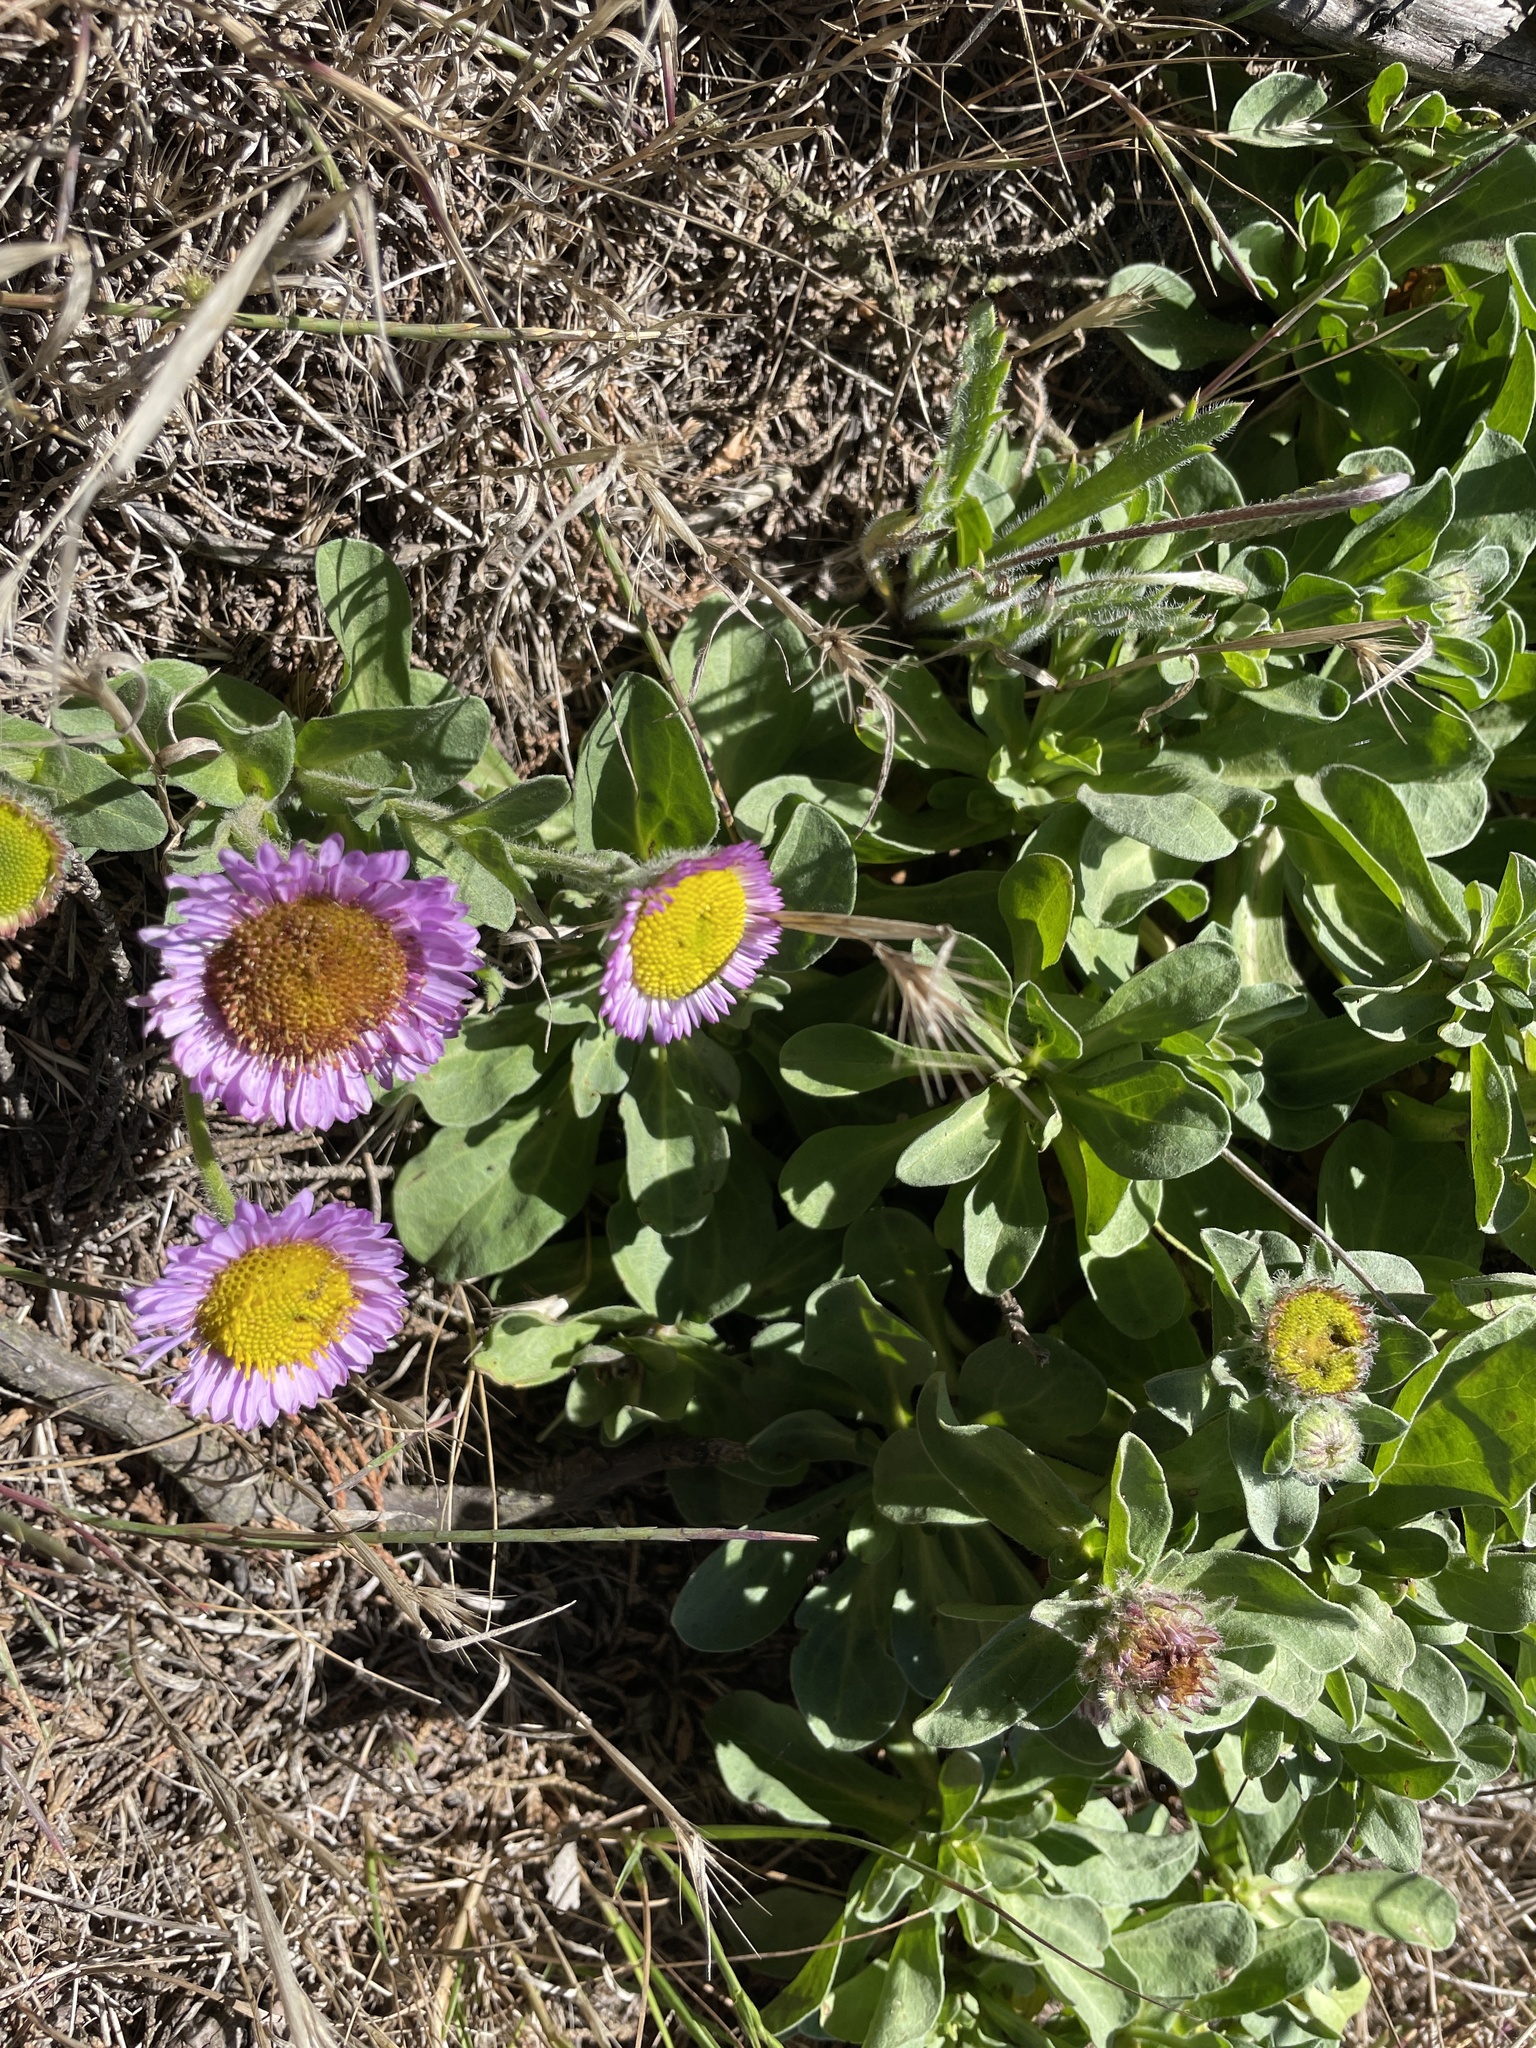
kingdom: Plantae
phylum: Tracheophyta
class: Magnoliopsida
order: Asterales
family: Asteraceae
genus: Erigeron
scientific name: Erigeron glaucus
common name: Seaside daisy
